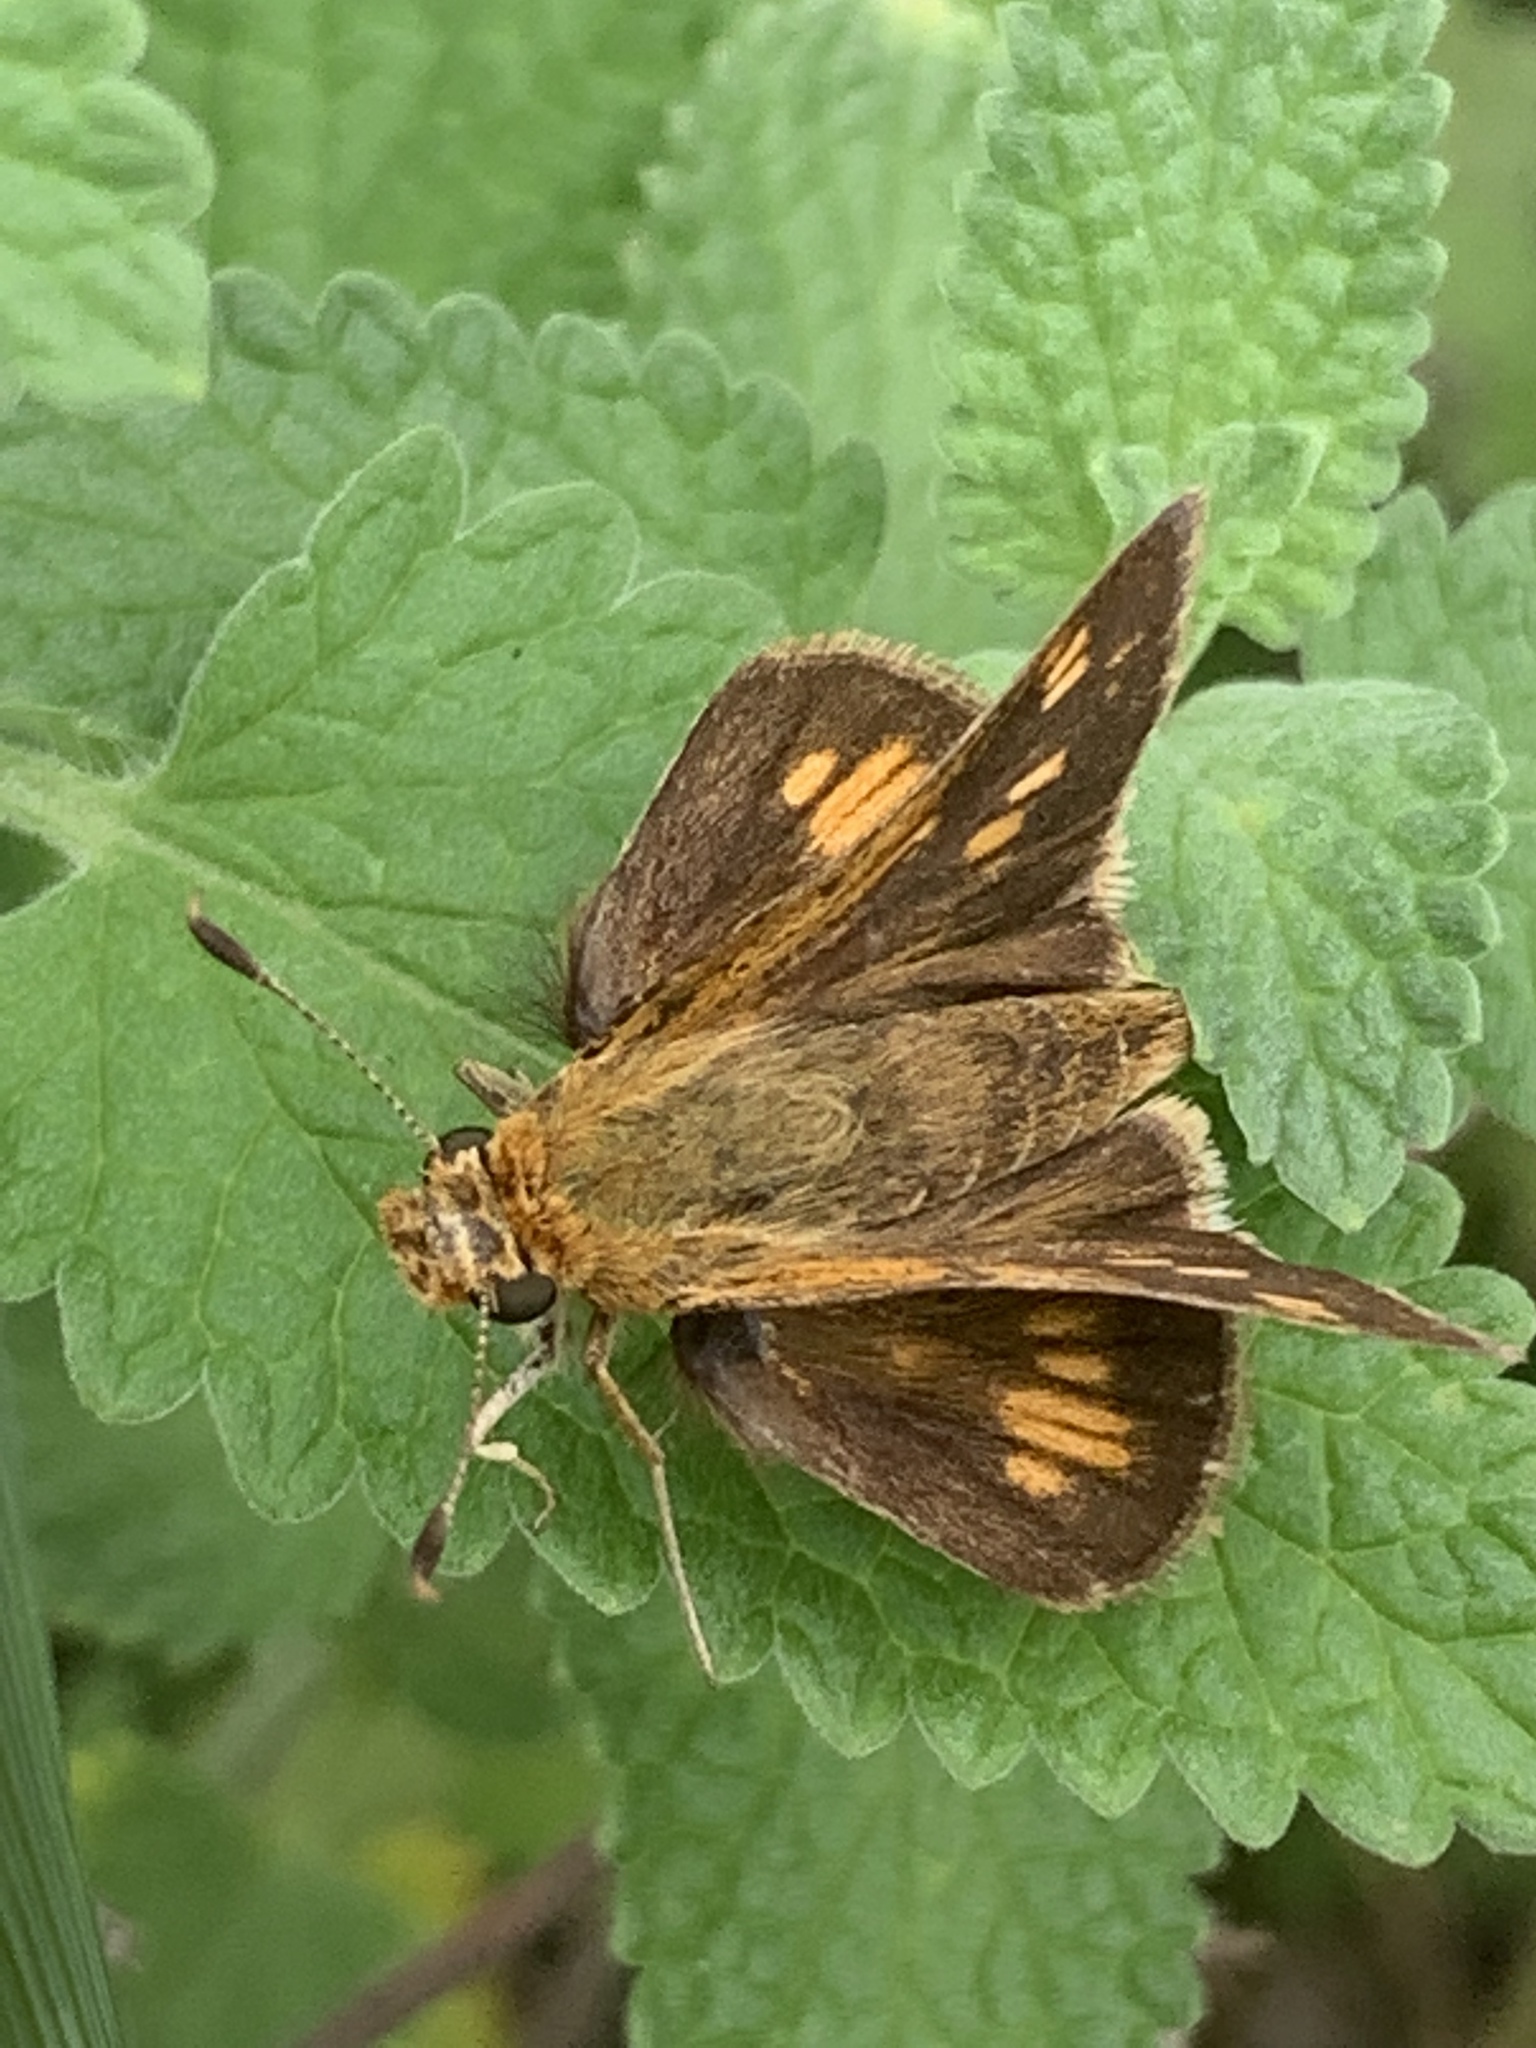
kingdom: Animalia
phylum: Arthropoda
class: Insecta
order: Lepidoptera
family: Hesperiidae
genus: Polites
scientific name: Polites coras
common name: Peck's skipper
